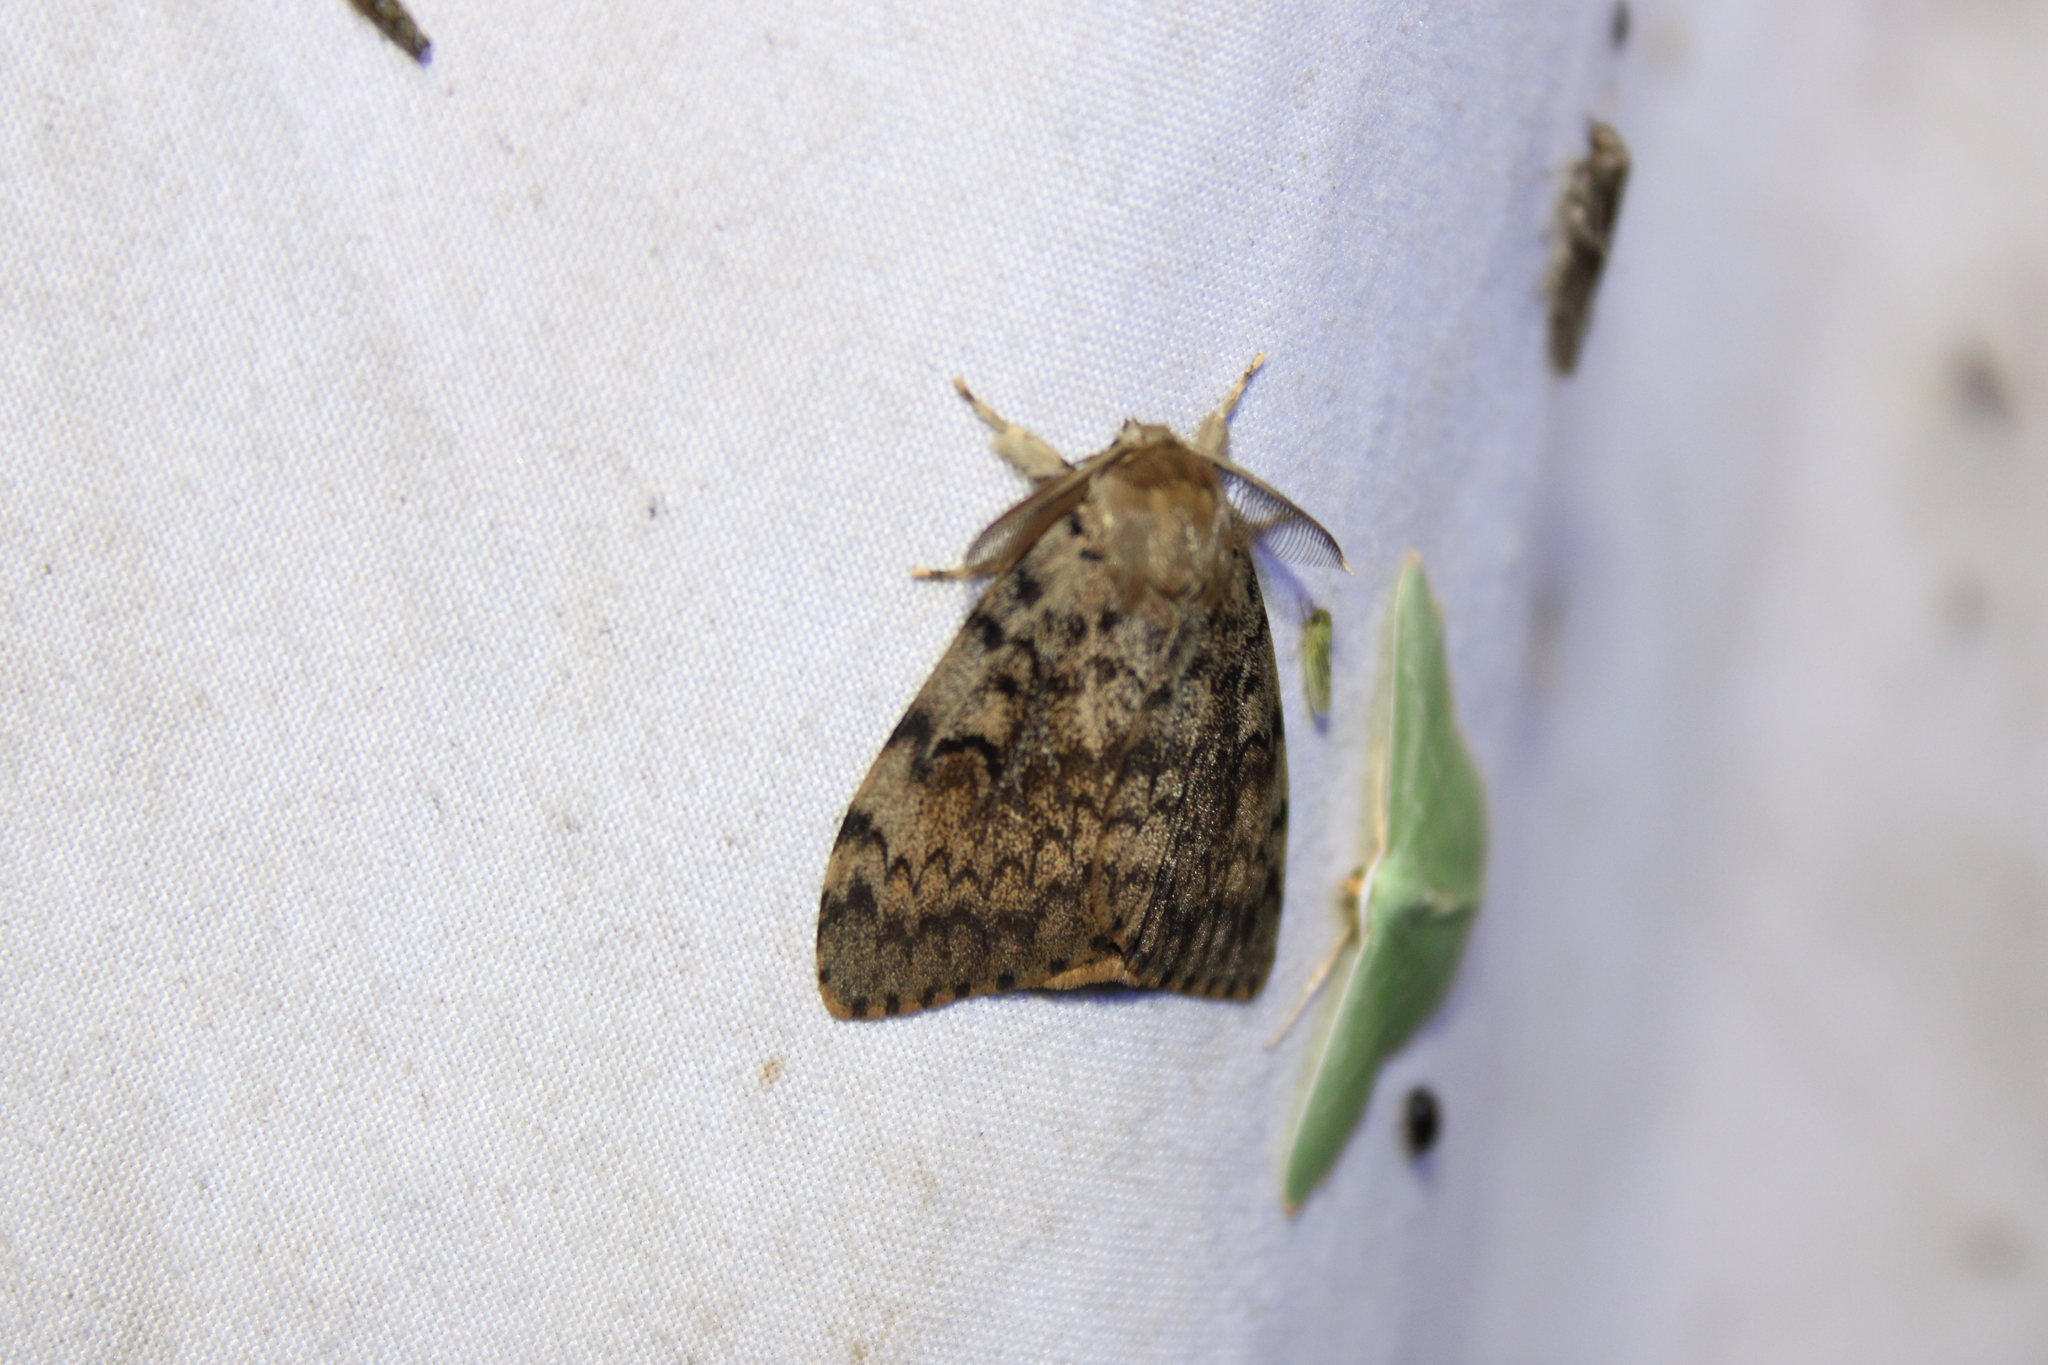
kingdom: Animalia
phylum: Arthropoda
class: Insecta
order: Lepidoptera
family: Erebidae
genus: Lymantria
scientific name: Lymantria dispar
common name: Gypsy moth
